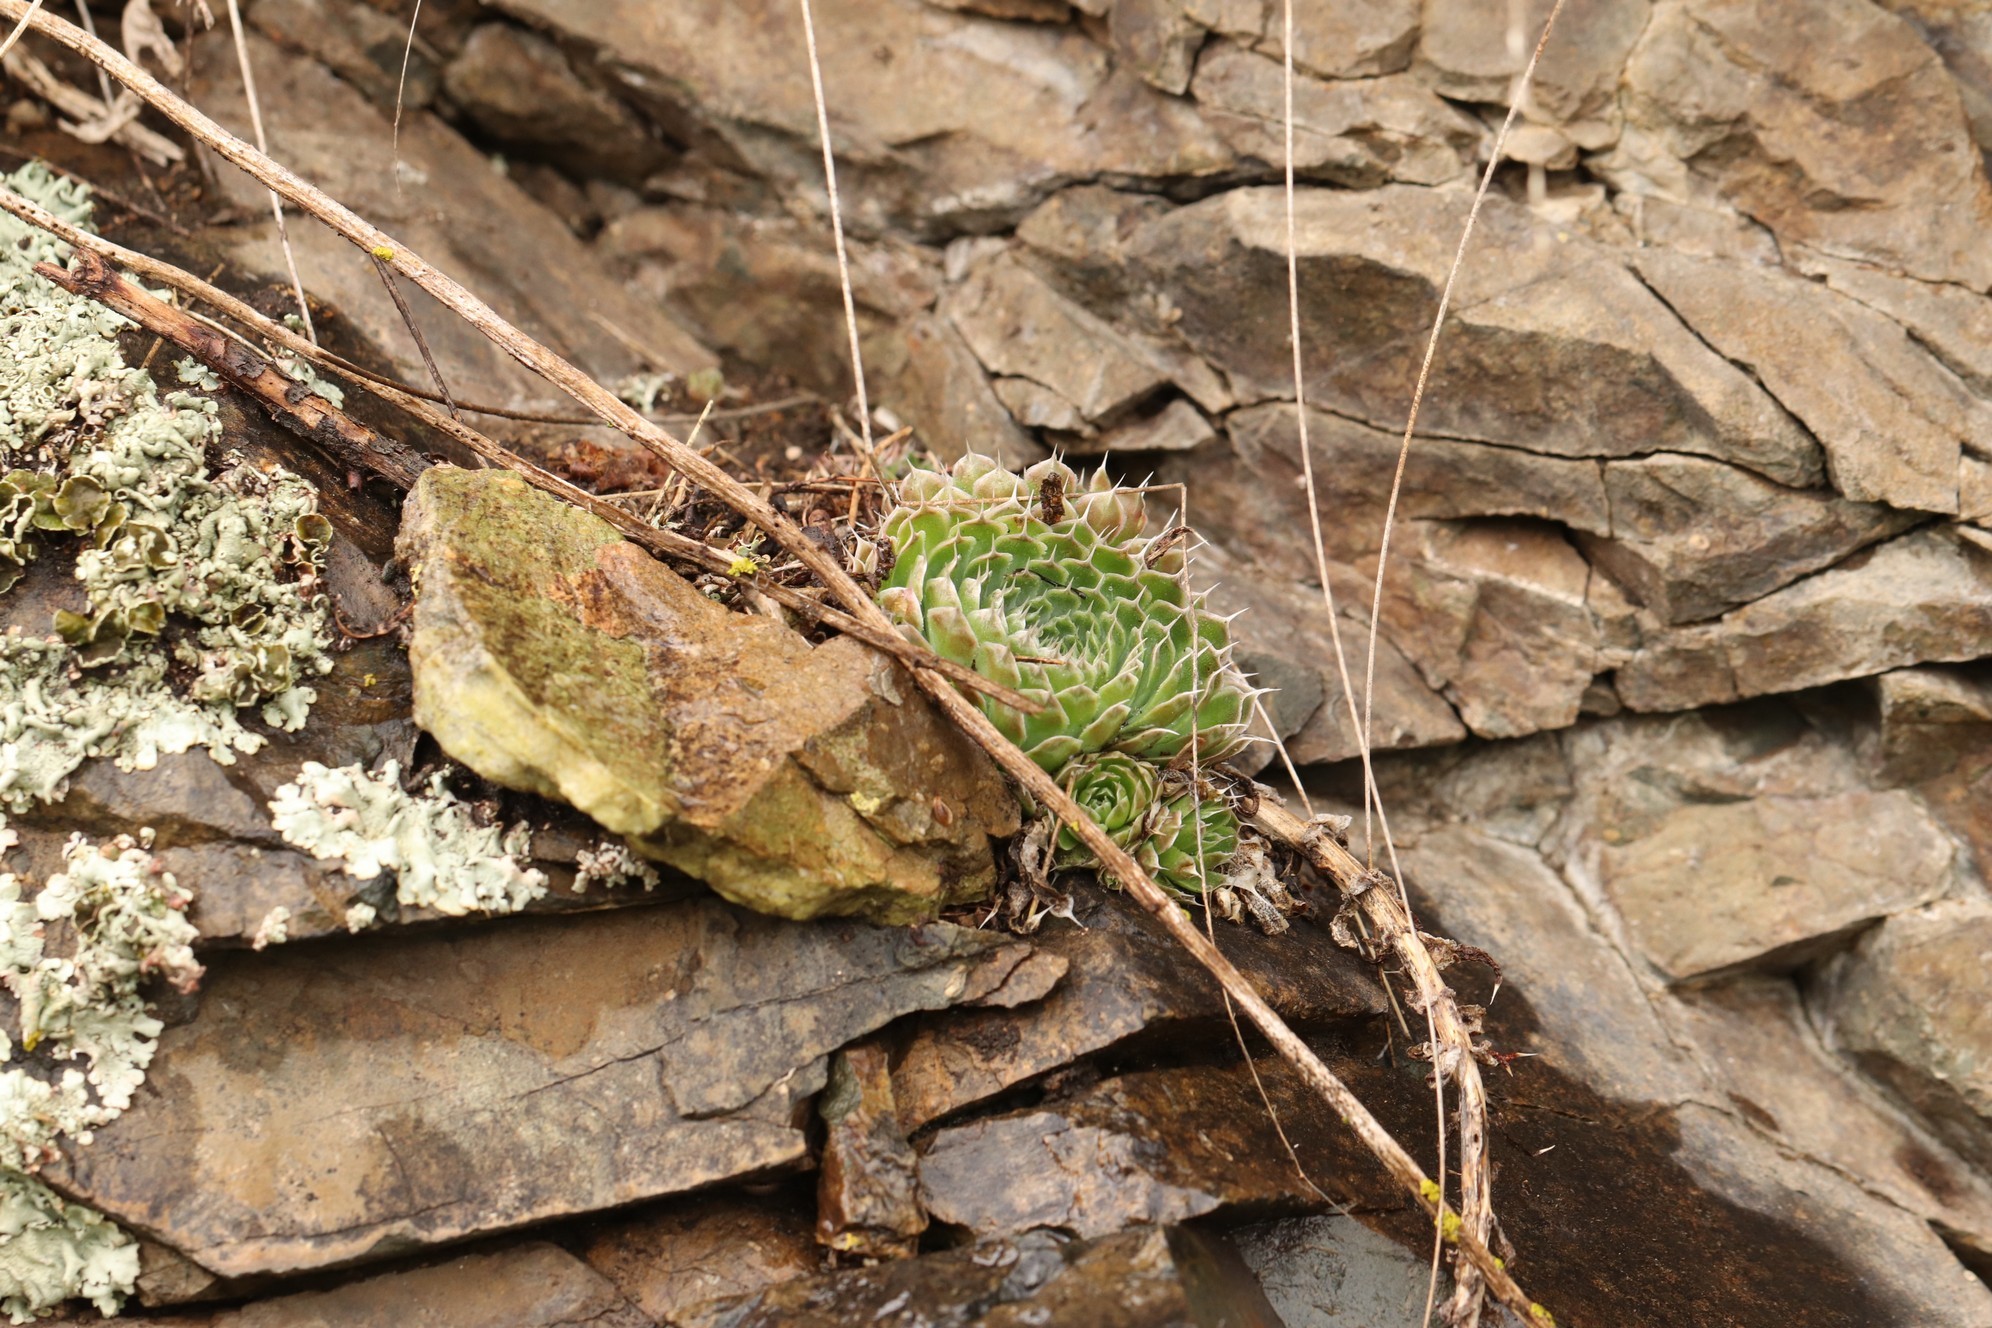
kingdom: Plantae
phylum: Tracheophyta
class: Magnoliopsida
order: Saxifragales
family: Crassulaceae
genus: Orostachys
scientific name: Orostachys spinosa
